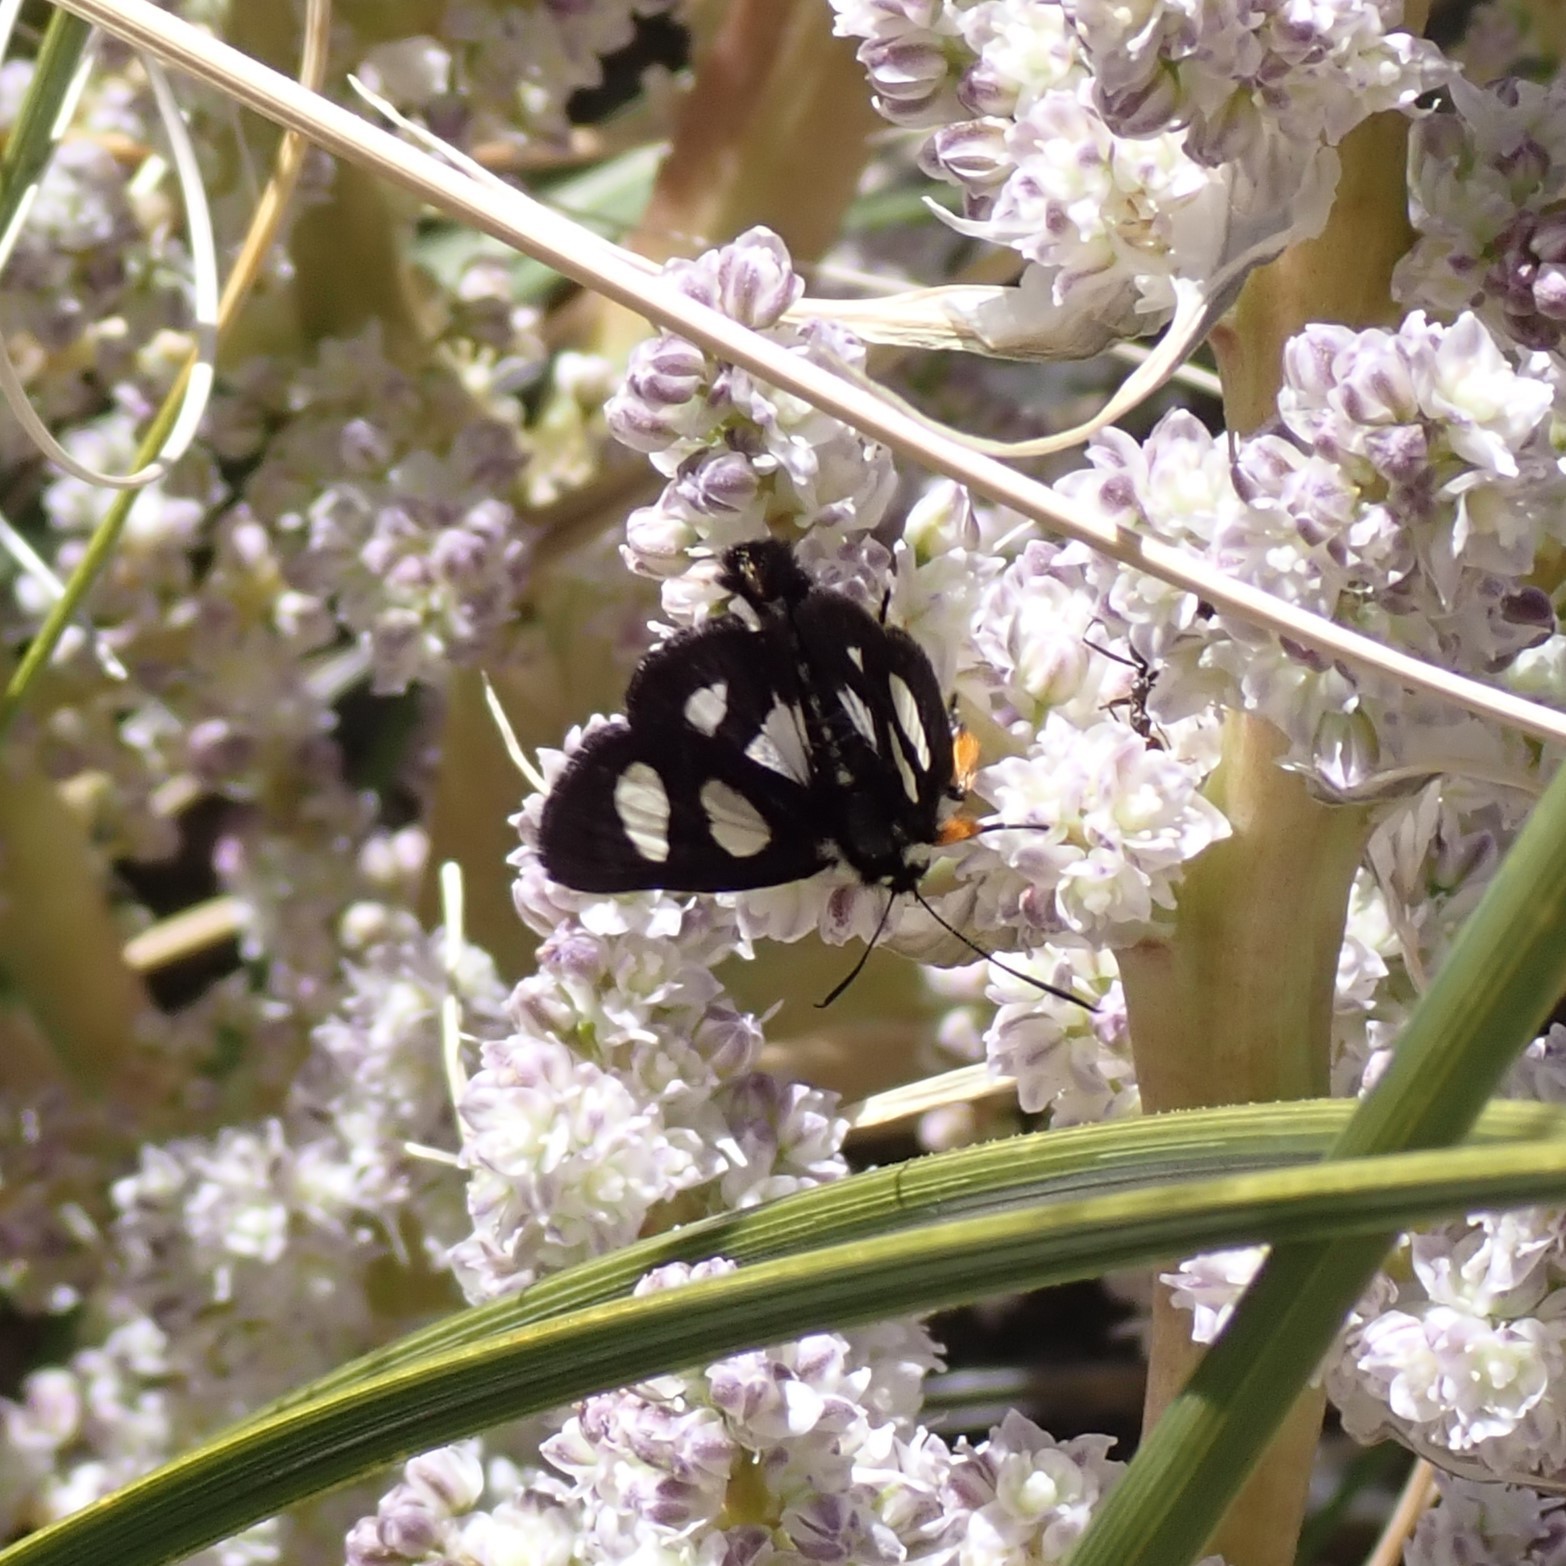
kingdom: Animalia
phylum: Arthropoda
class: Insecta
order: Lepidoptera
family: Noctuidae
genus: Alypia
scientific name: Alypia octomaculata
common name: Eight-spotted forester
